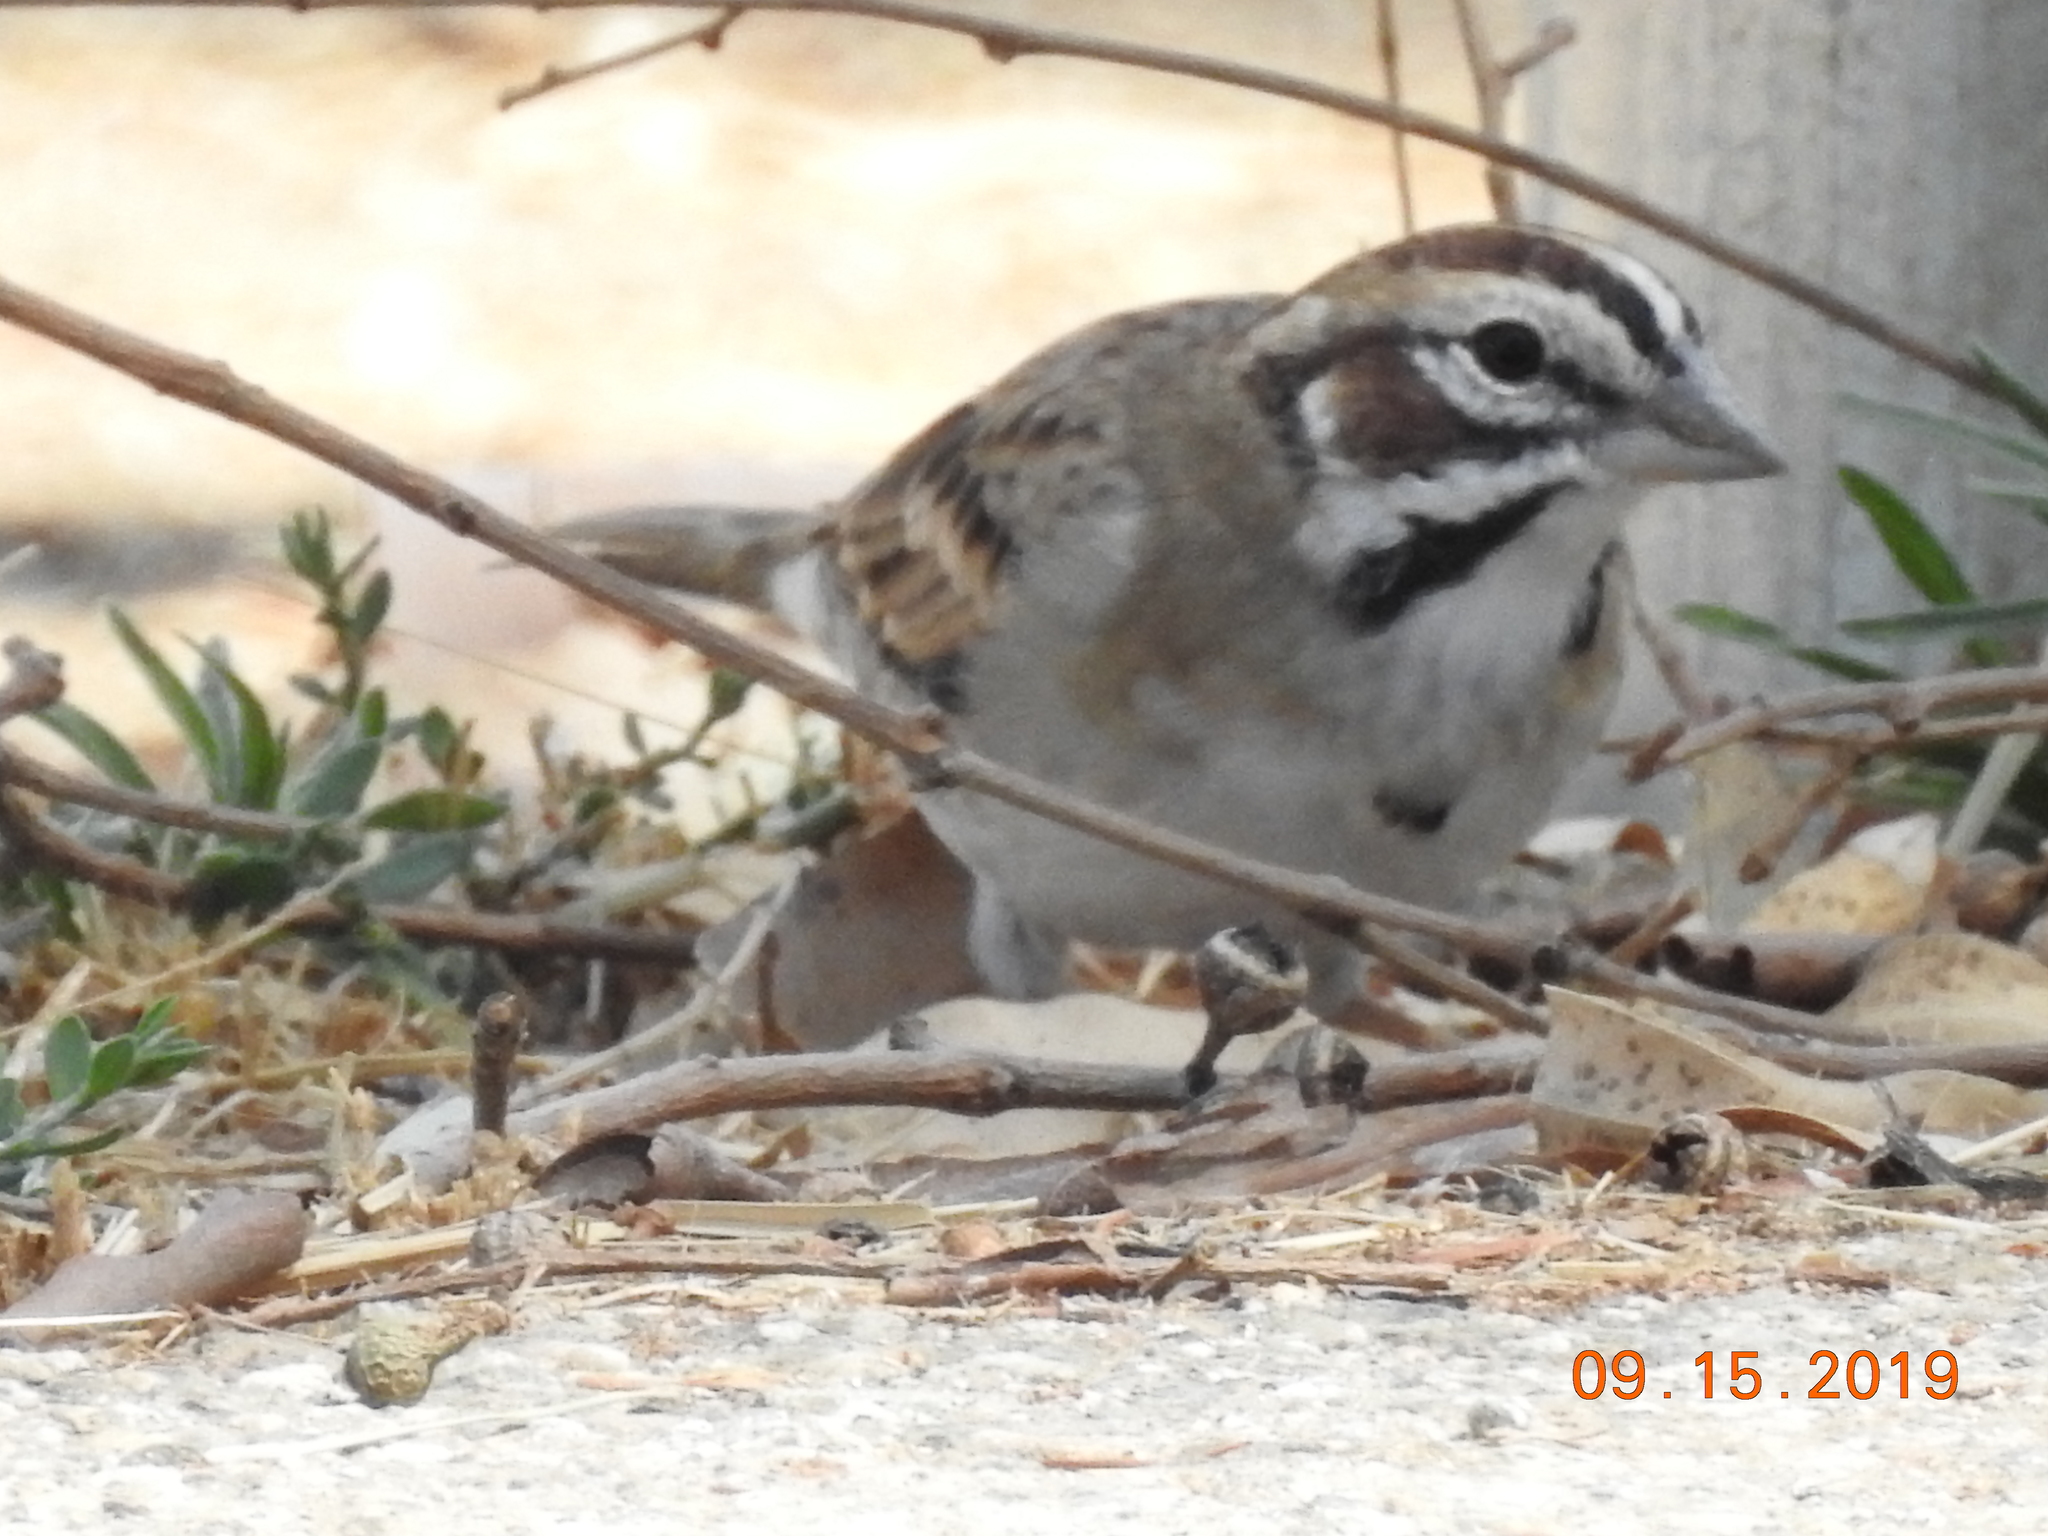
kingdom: Animalia
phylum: Chordata
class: Aves
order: Passeriformes
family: Passerellidae
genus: Chondestes
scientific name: Chondestes grammacus
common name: Lark sparrow
